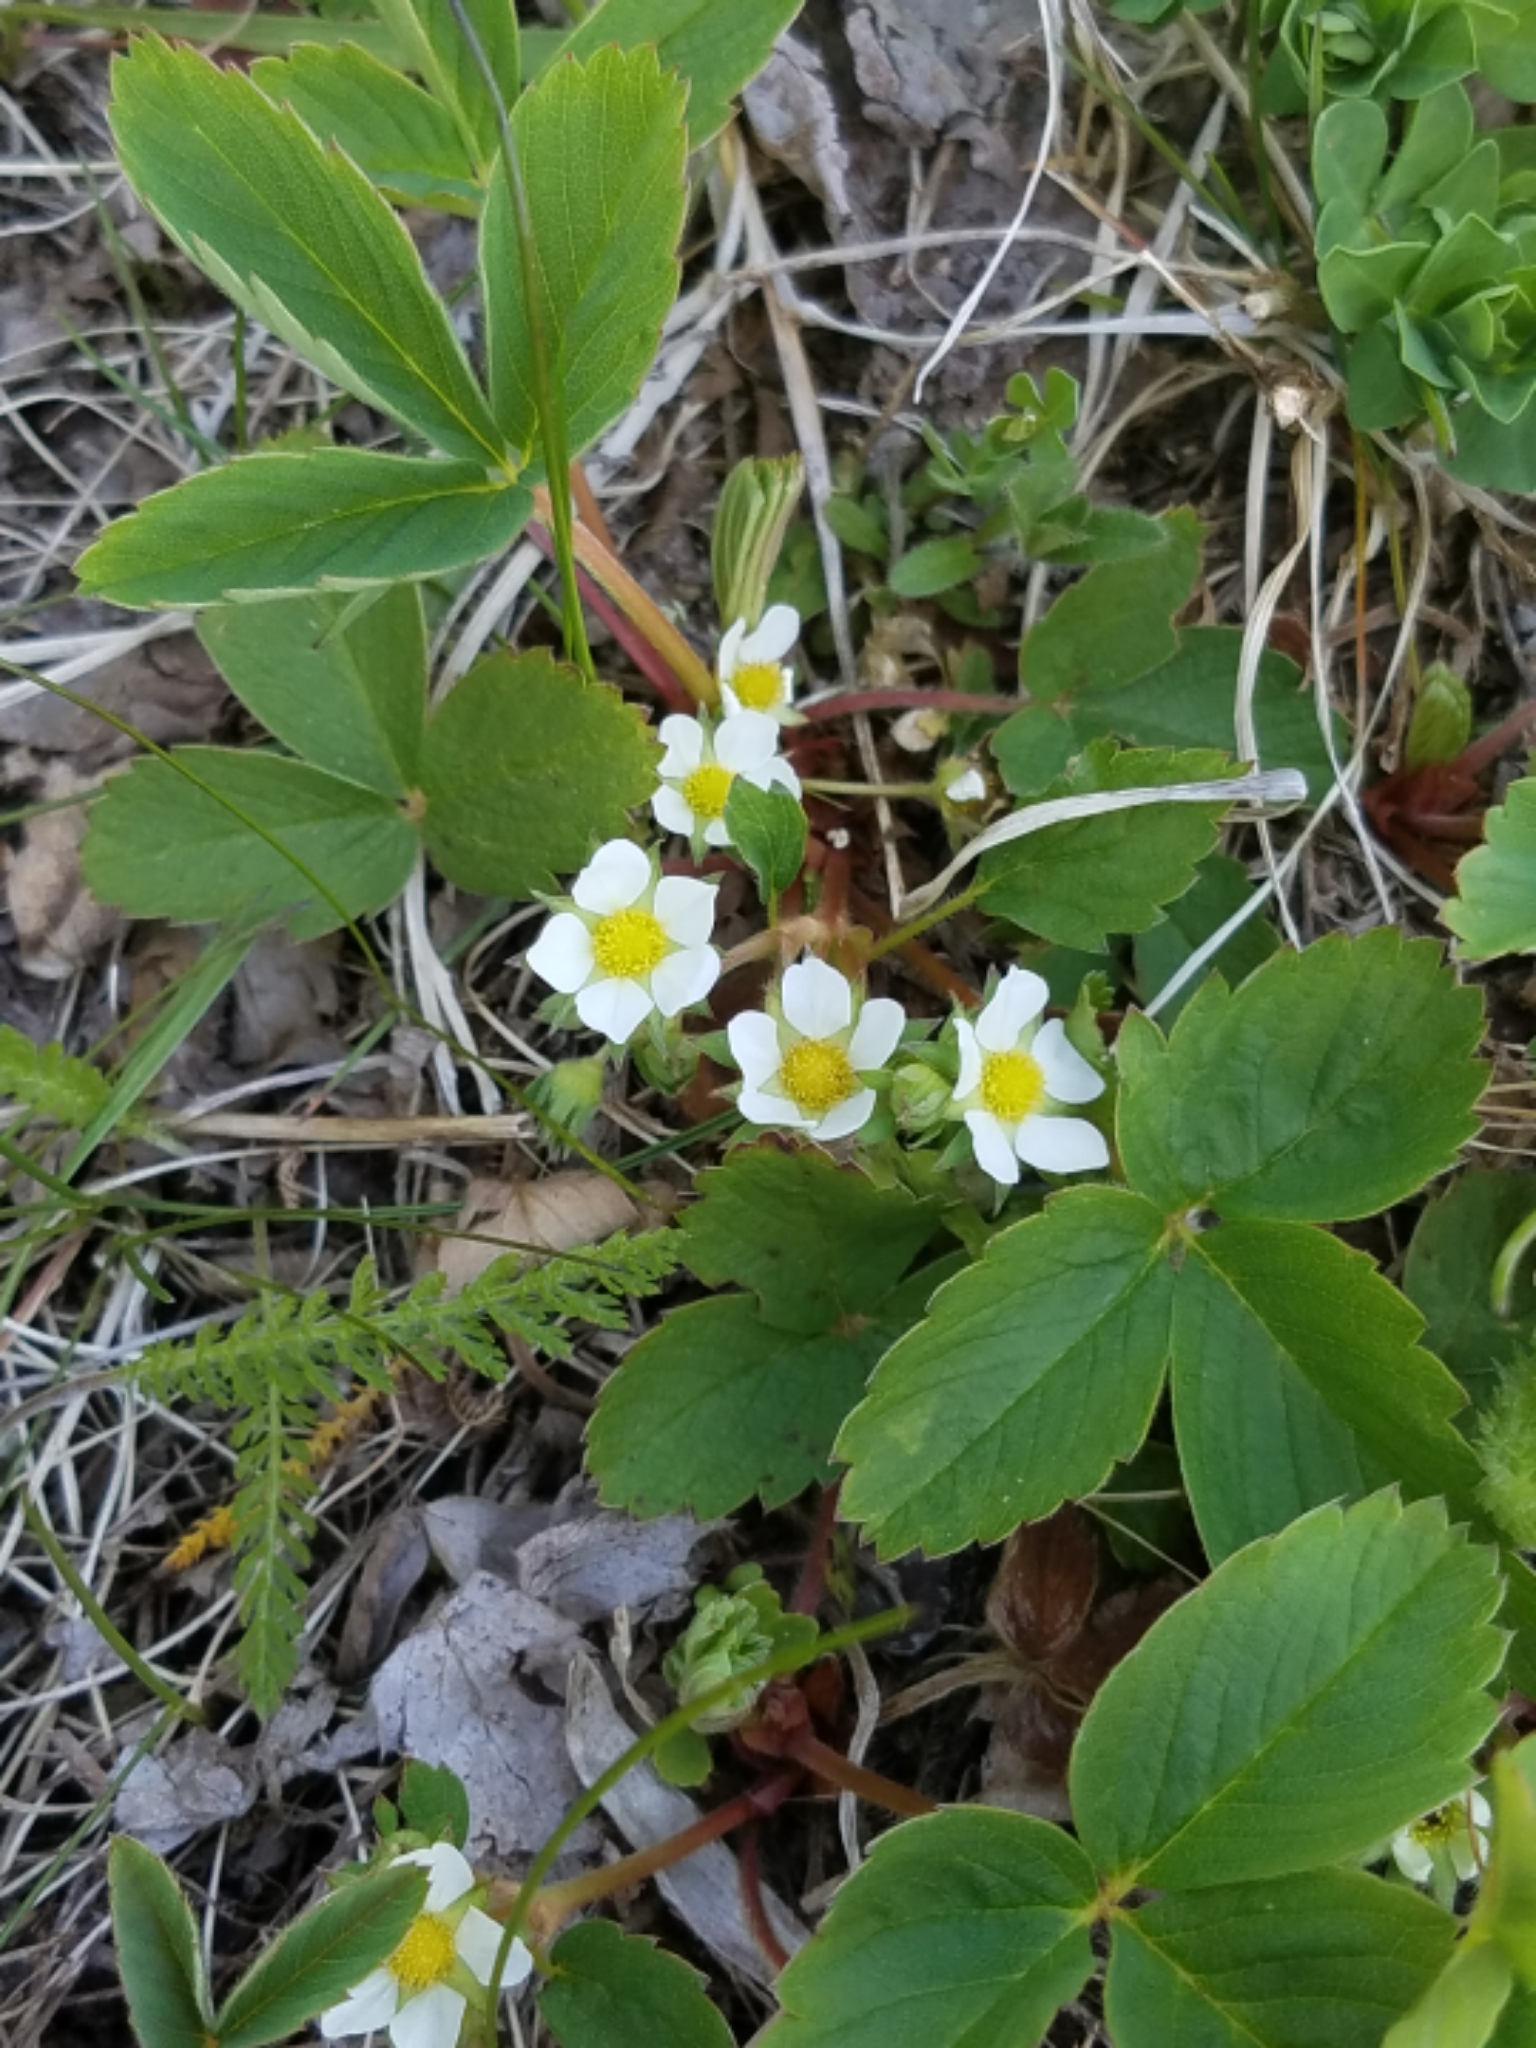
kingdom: Plantae
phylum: Tracheophyta
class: Magnoliopsida
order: Rosales
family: Rosaceae
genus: Fragaria
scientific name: Fragaria virginiana
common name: Thickleaved wild strawberry
